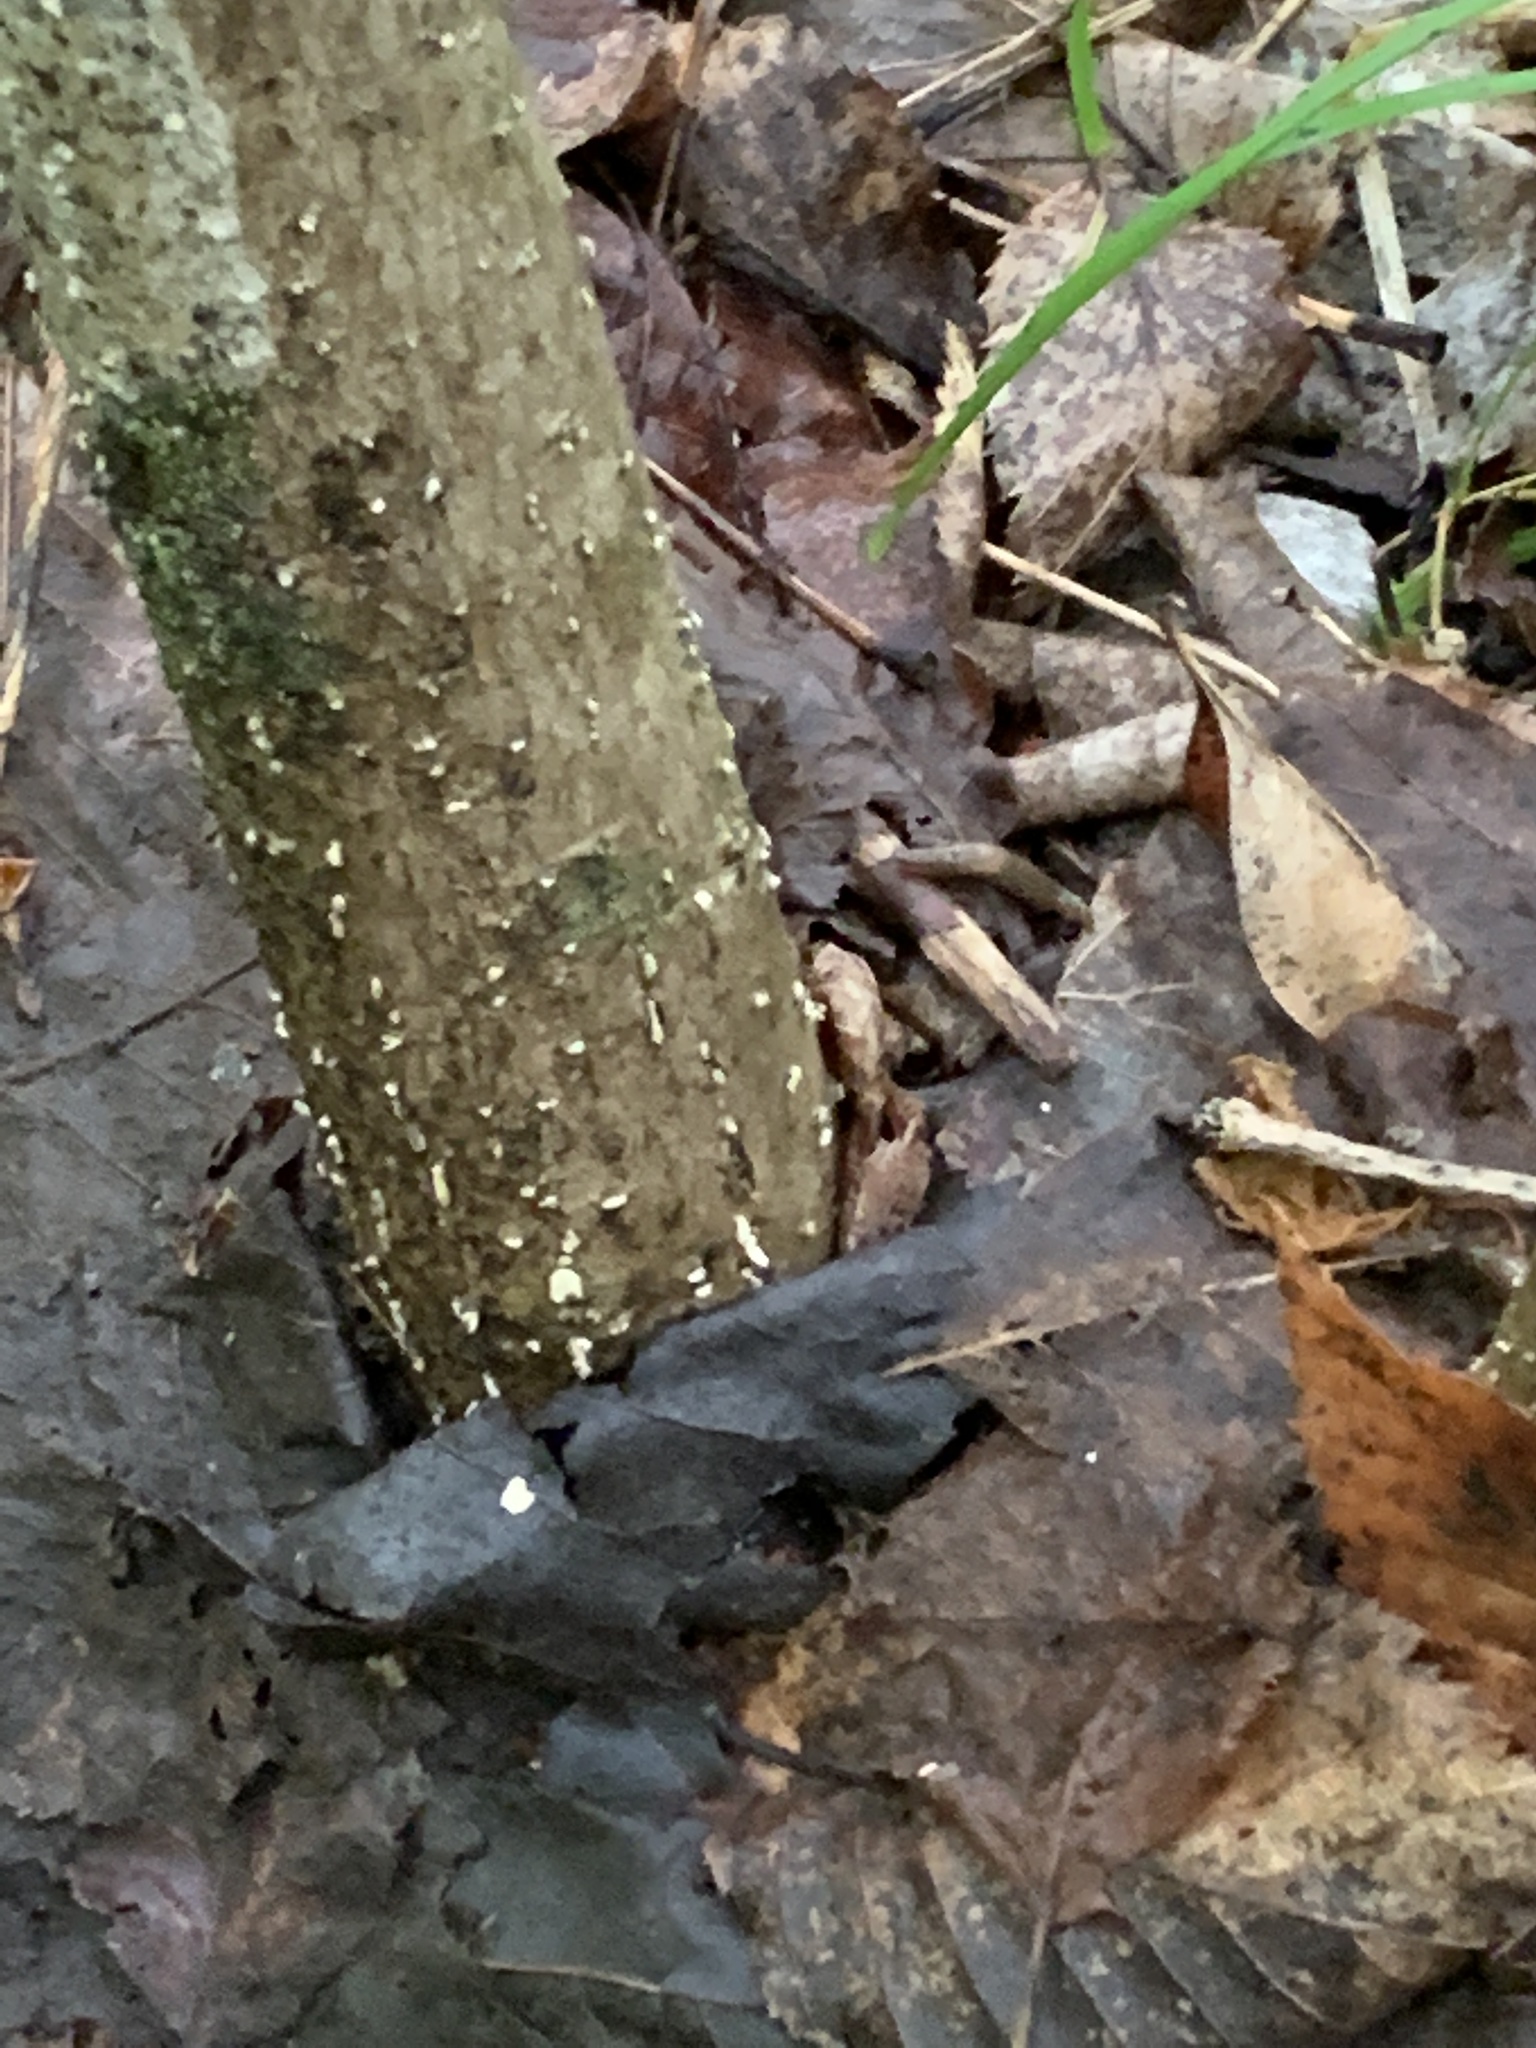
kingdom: Plantae
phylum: Tracheophyta
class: Magnoliopsida
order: Lamiales
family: Oleaceae
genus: Fraxinus
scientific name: Fraxinus nigra
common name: Black ash
